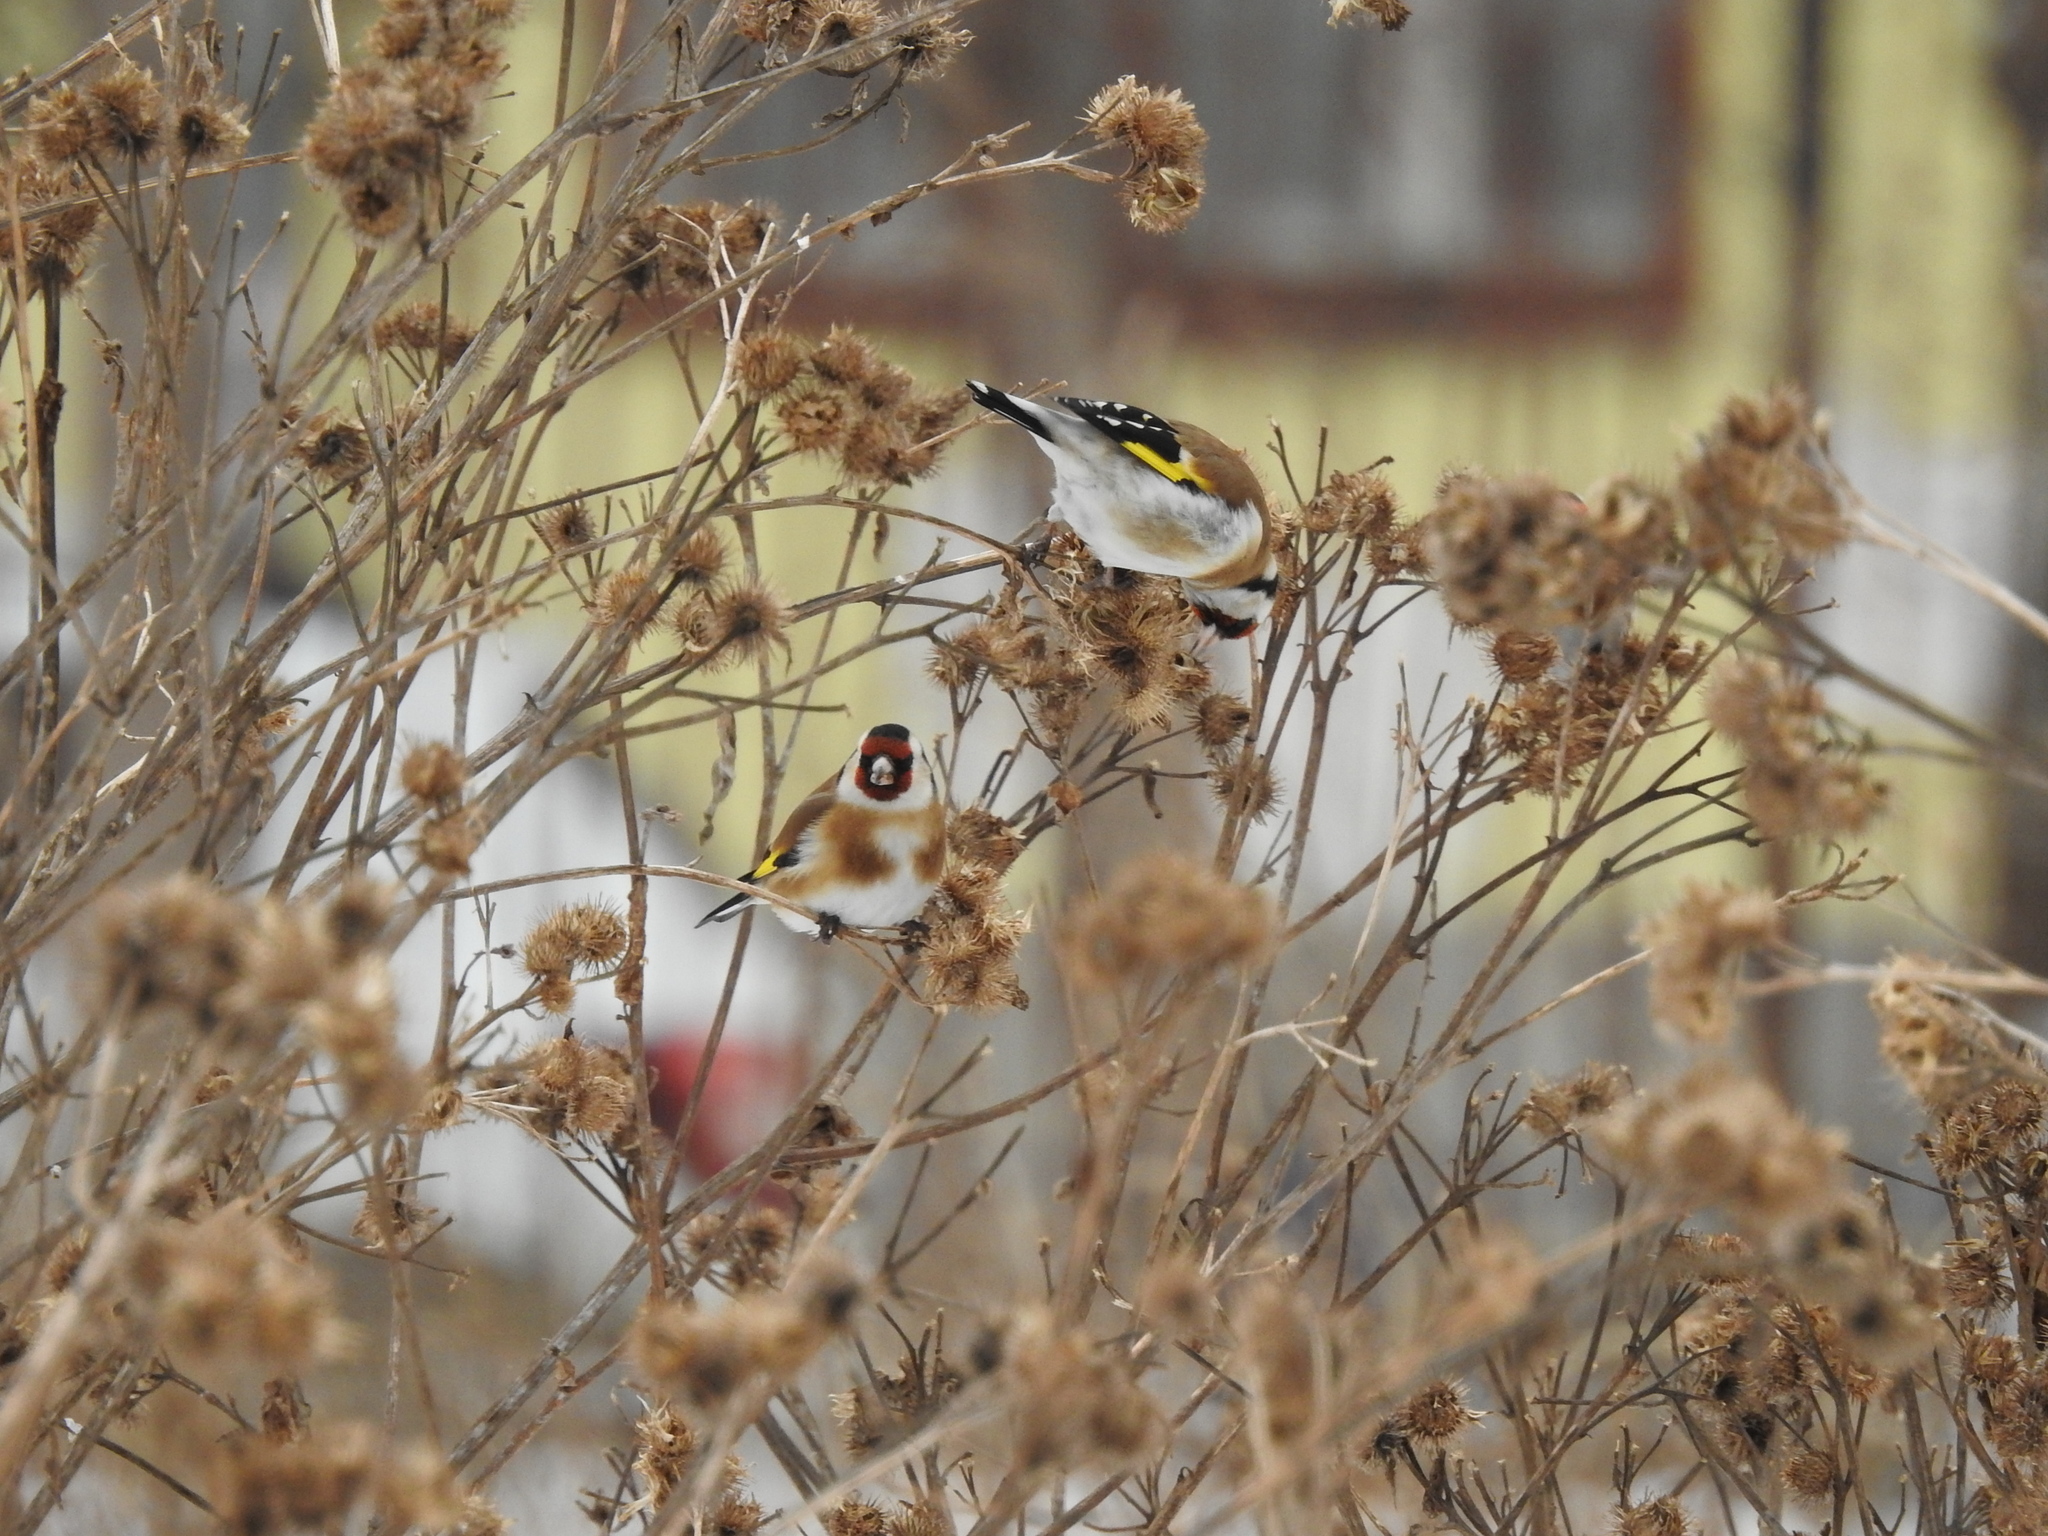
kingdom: Animalia
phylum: Chordata
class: Aves
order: Passeriformes
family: Fringillidae
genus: Carduelis
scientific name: Carduelis carduelis
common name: European goldfinch
